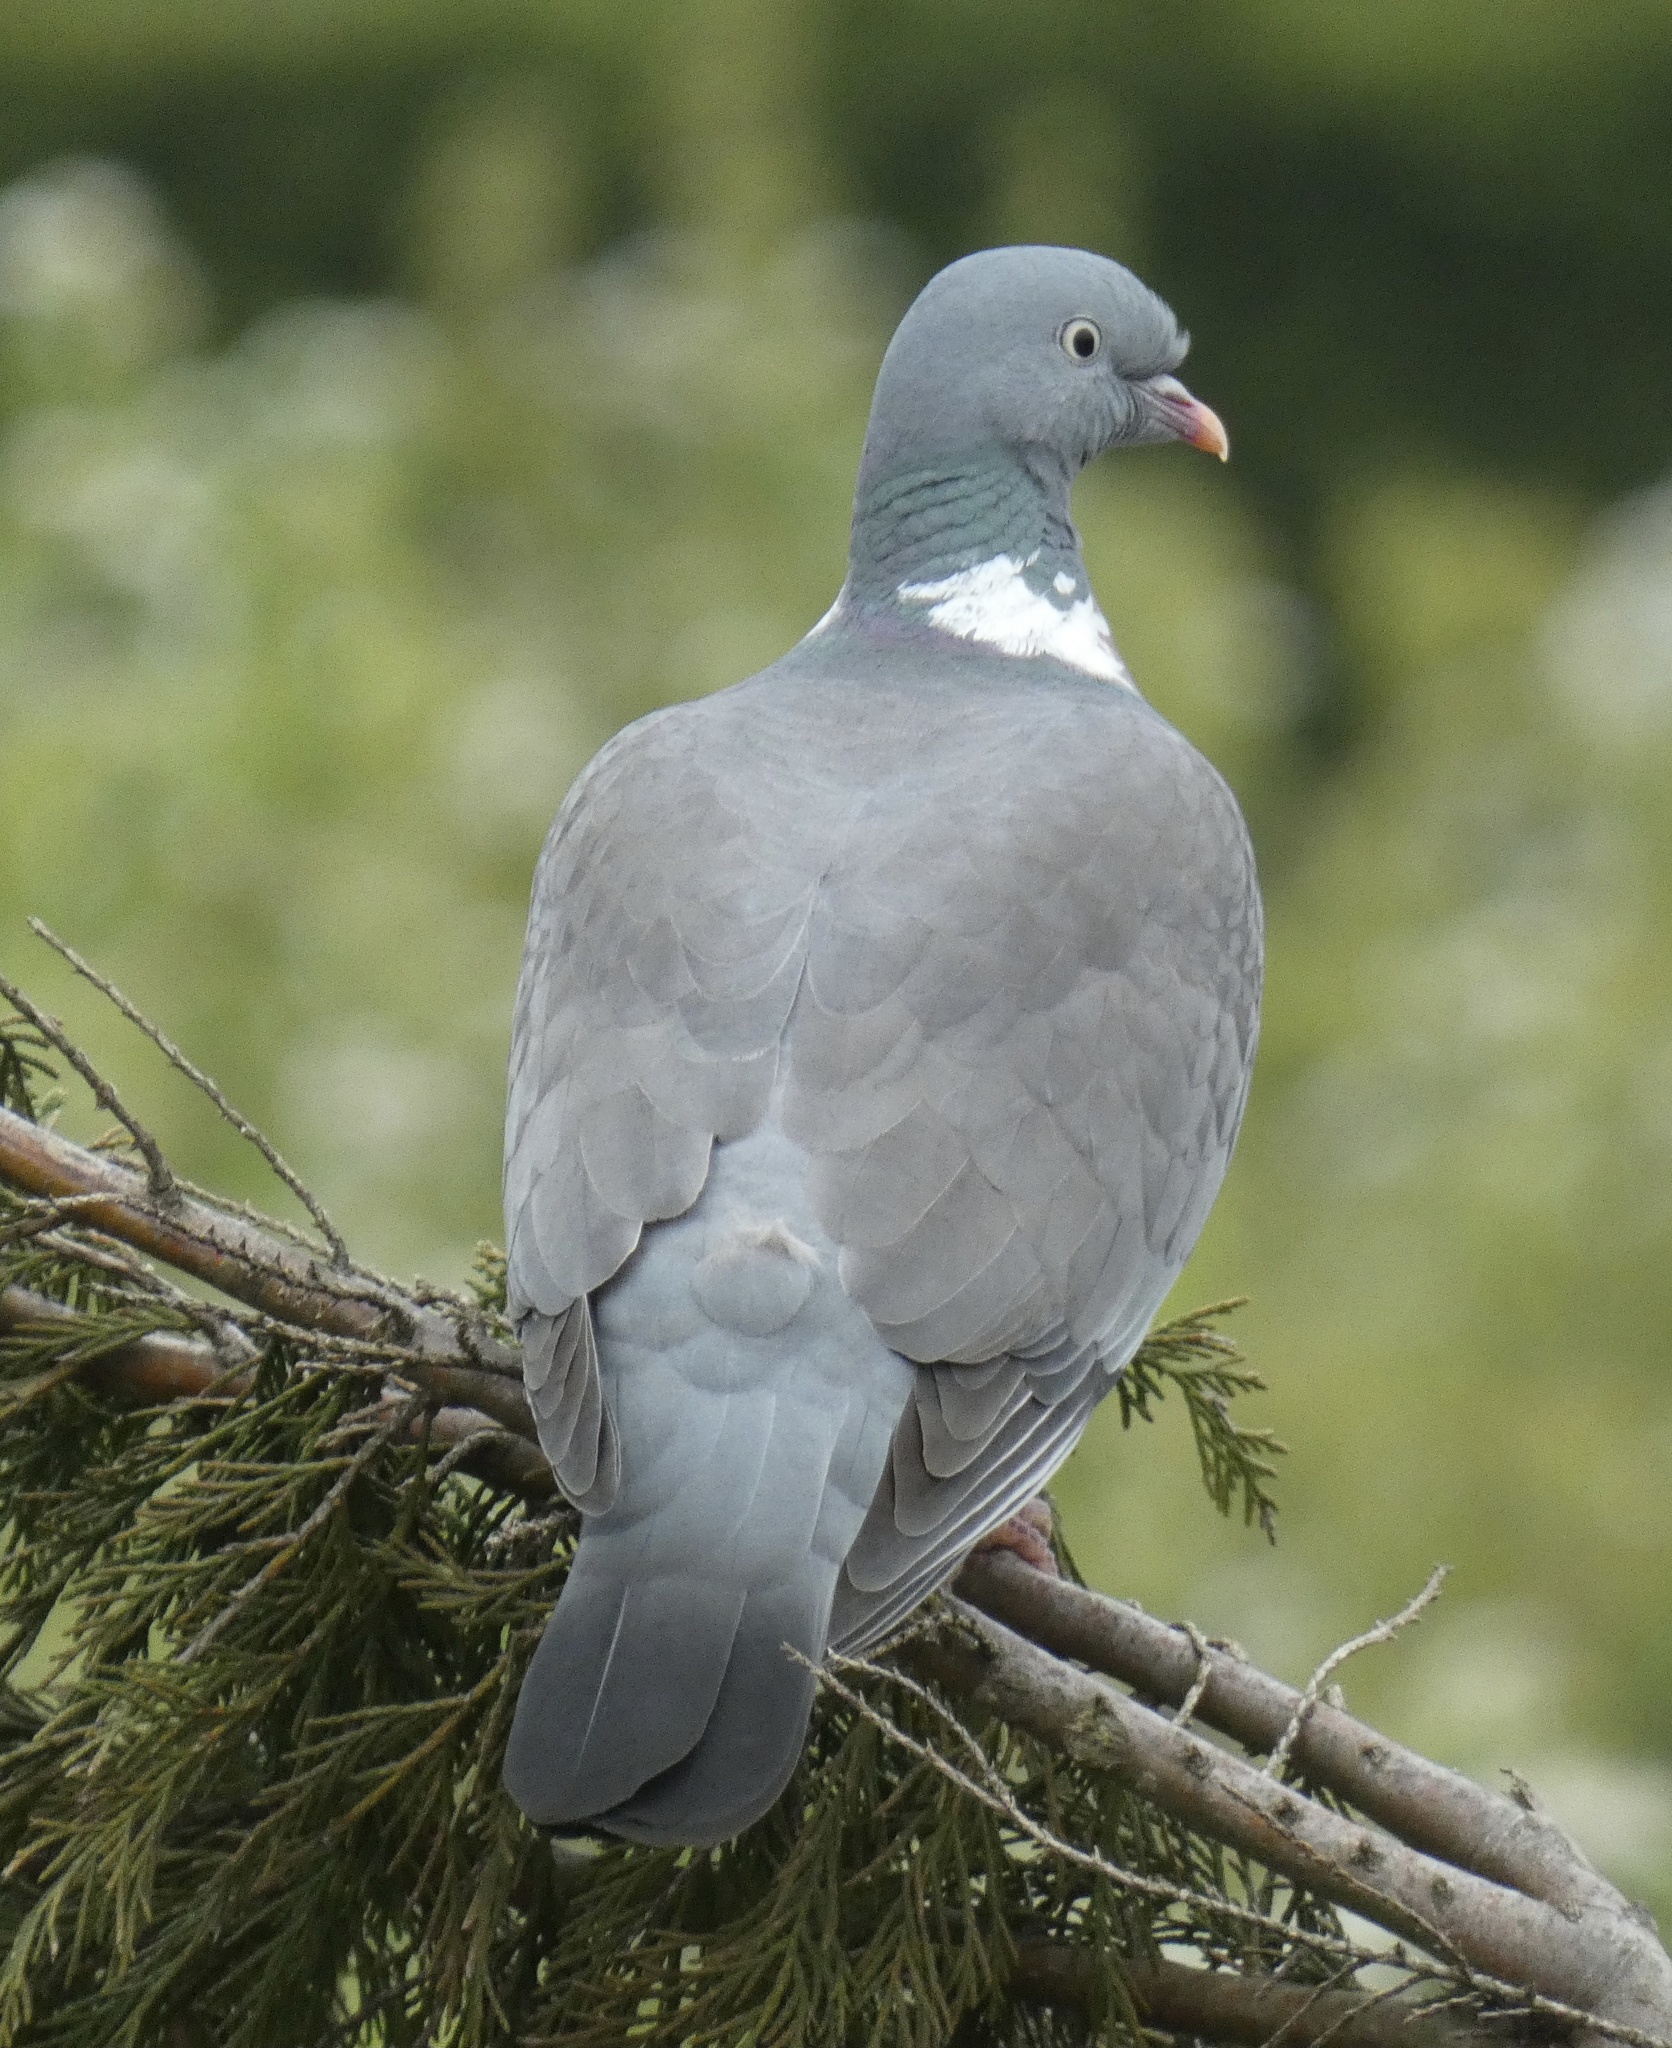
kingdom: Animalia
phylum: Chordata
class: Aves
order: Columbiformes
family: Columbidae
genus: Columba
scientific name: Columba palumbus
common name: Common wood pigeon
